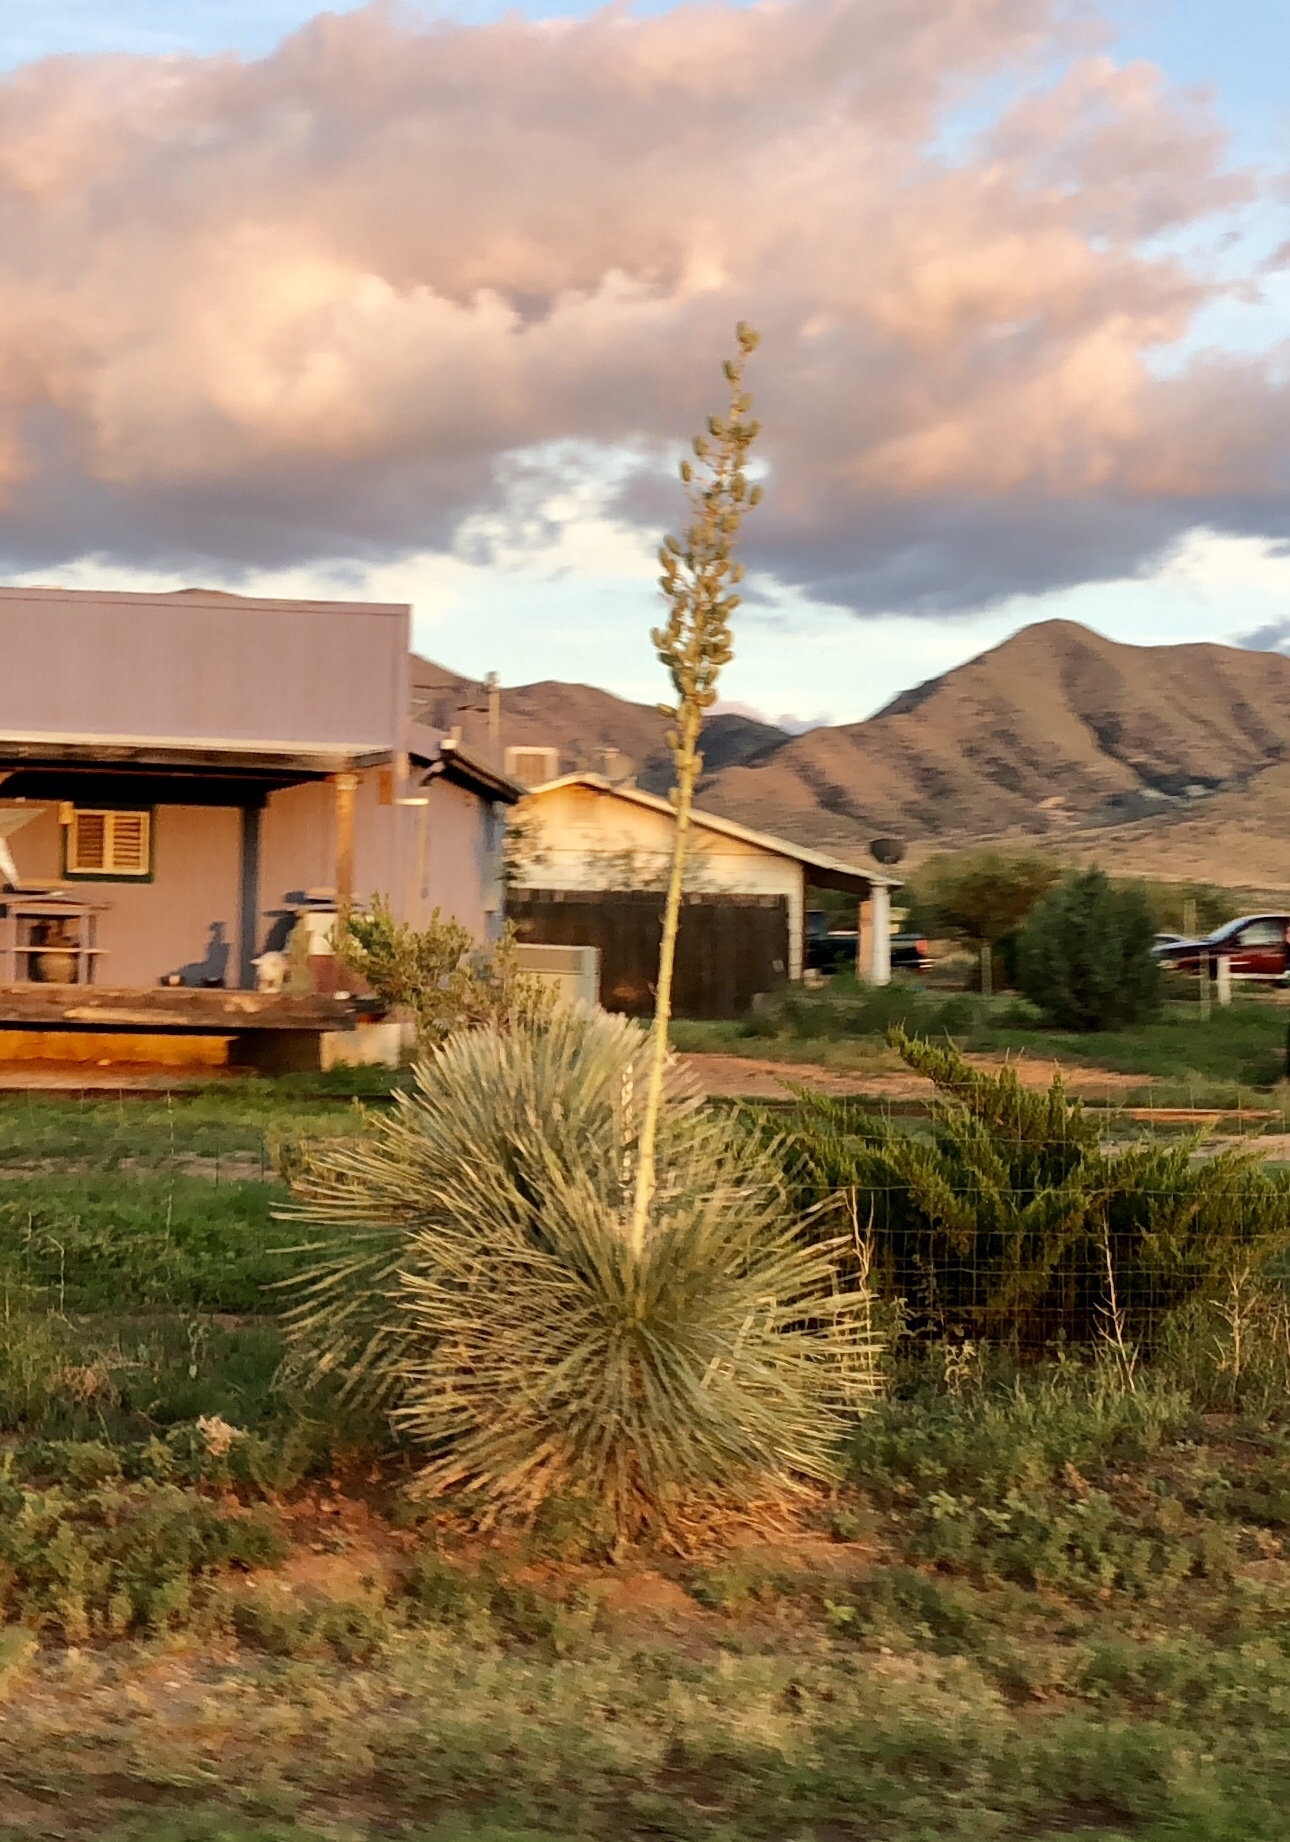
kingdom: Plantae
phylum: Tracheophyta
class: Liliopsida
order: Asparagales
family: Asparagaceae
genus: Yucca
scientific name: Yucca elata
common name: Palmella
